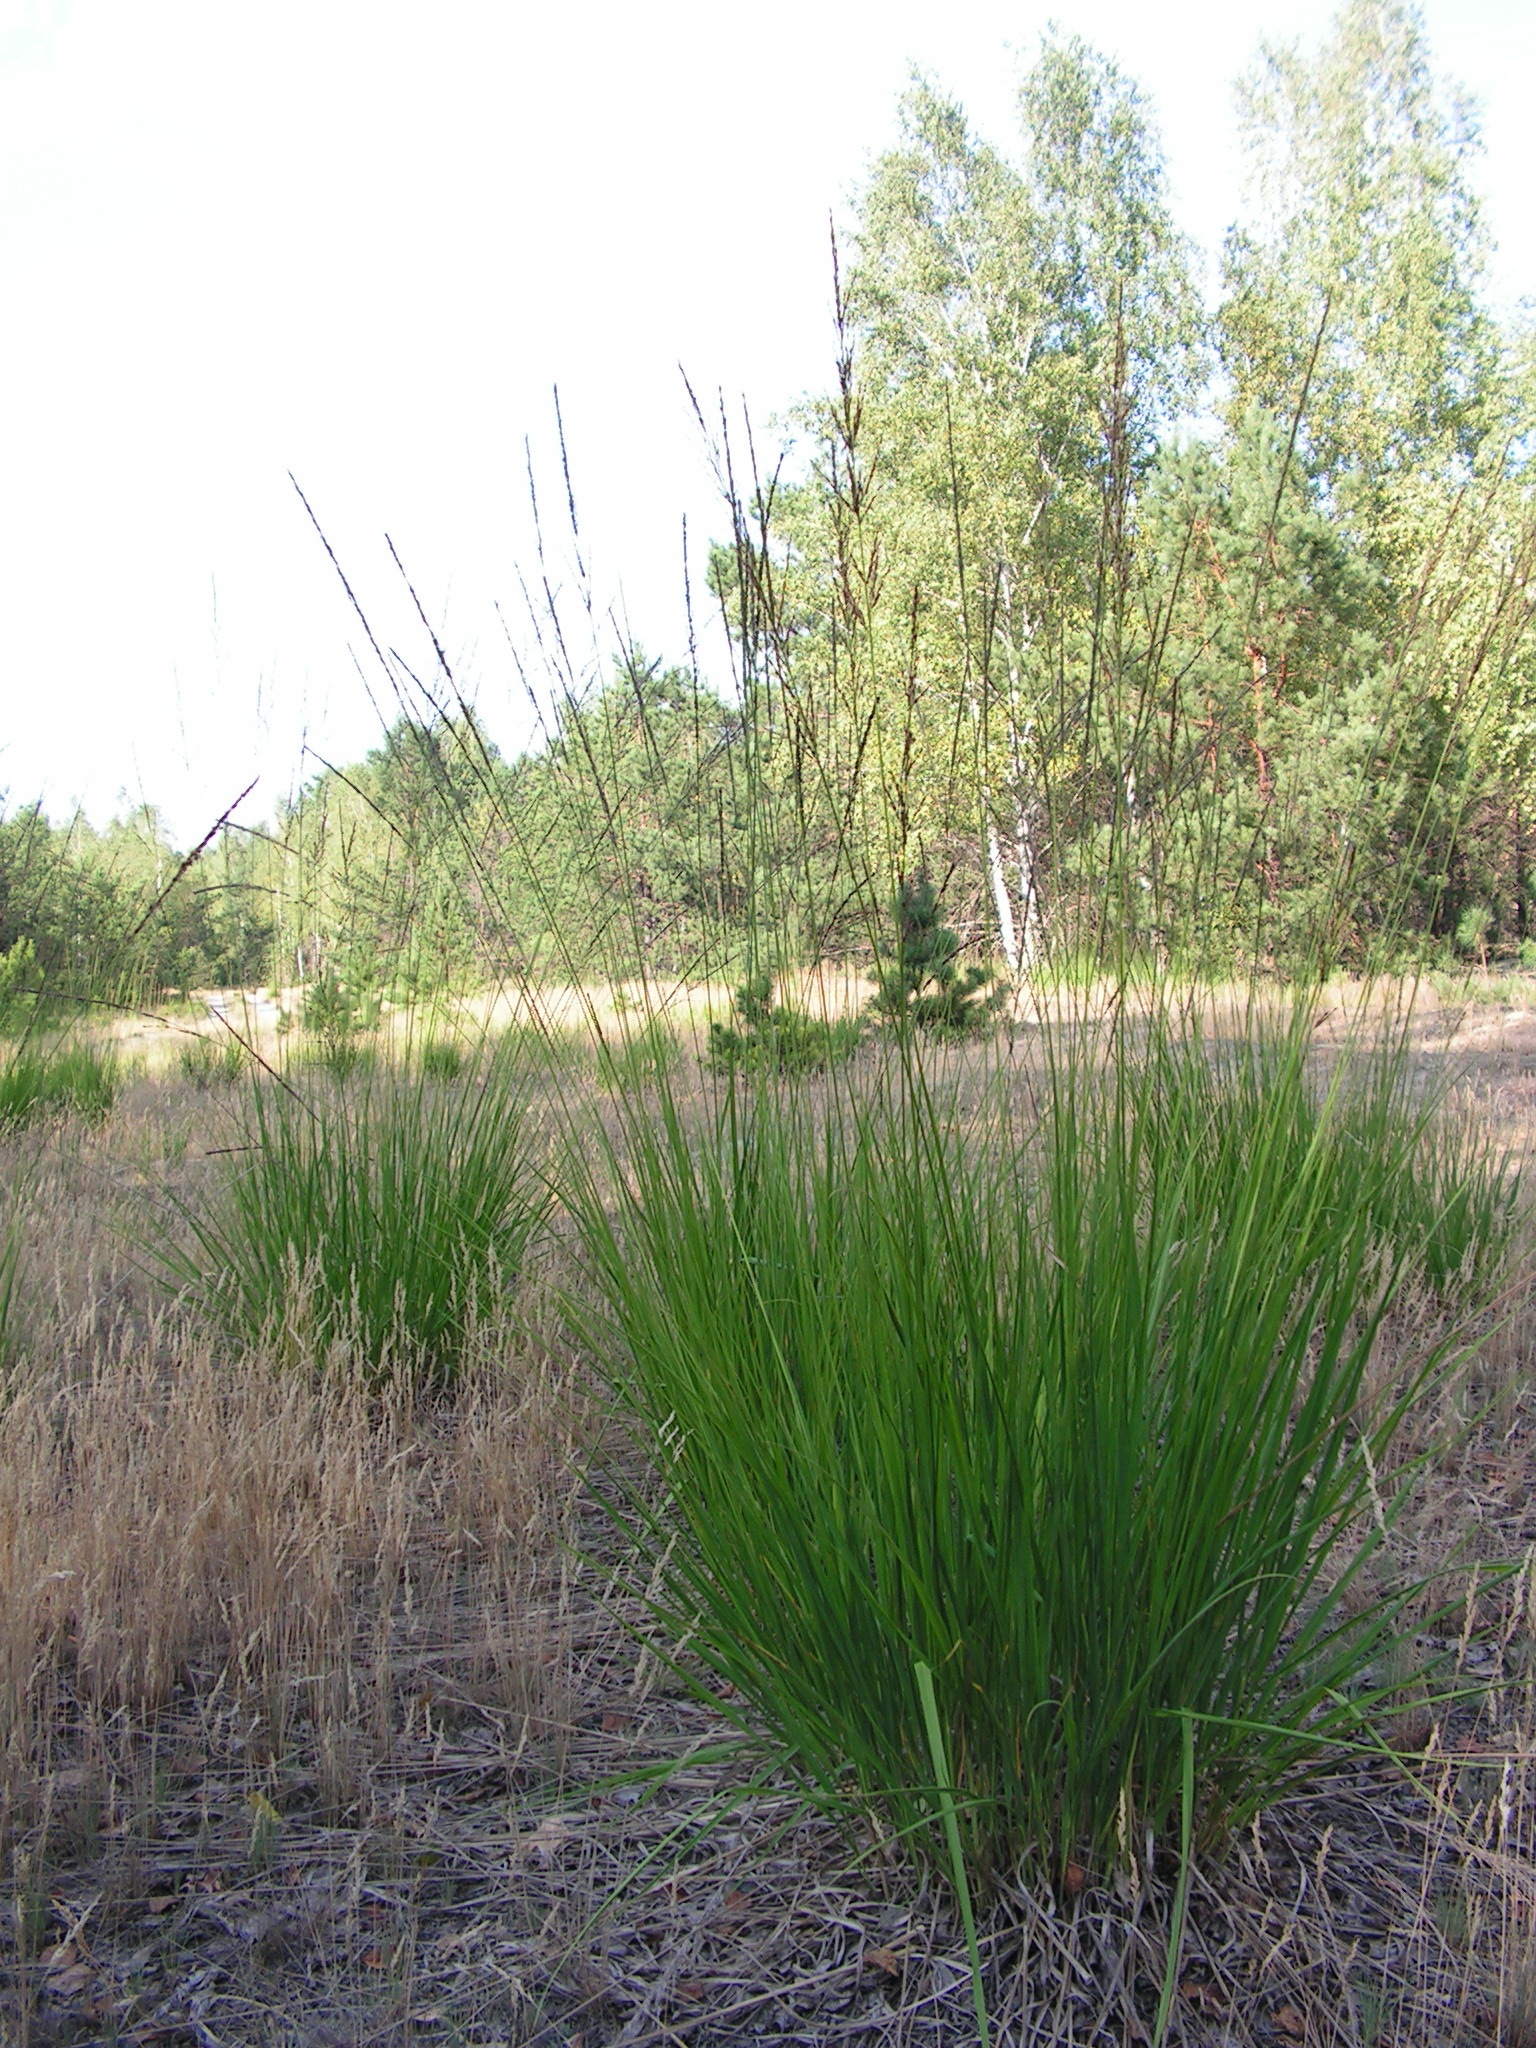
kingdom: Plantae
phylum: Tracheophyta
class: Liliopsida
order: Poales
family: Poaceae
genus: Molinia
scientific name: Molinia caerulea
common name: Purple moor-grass
